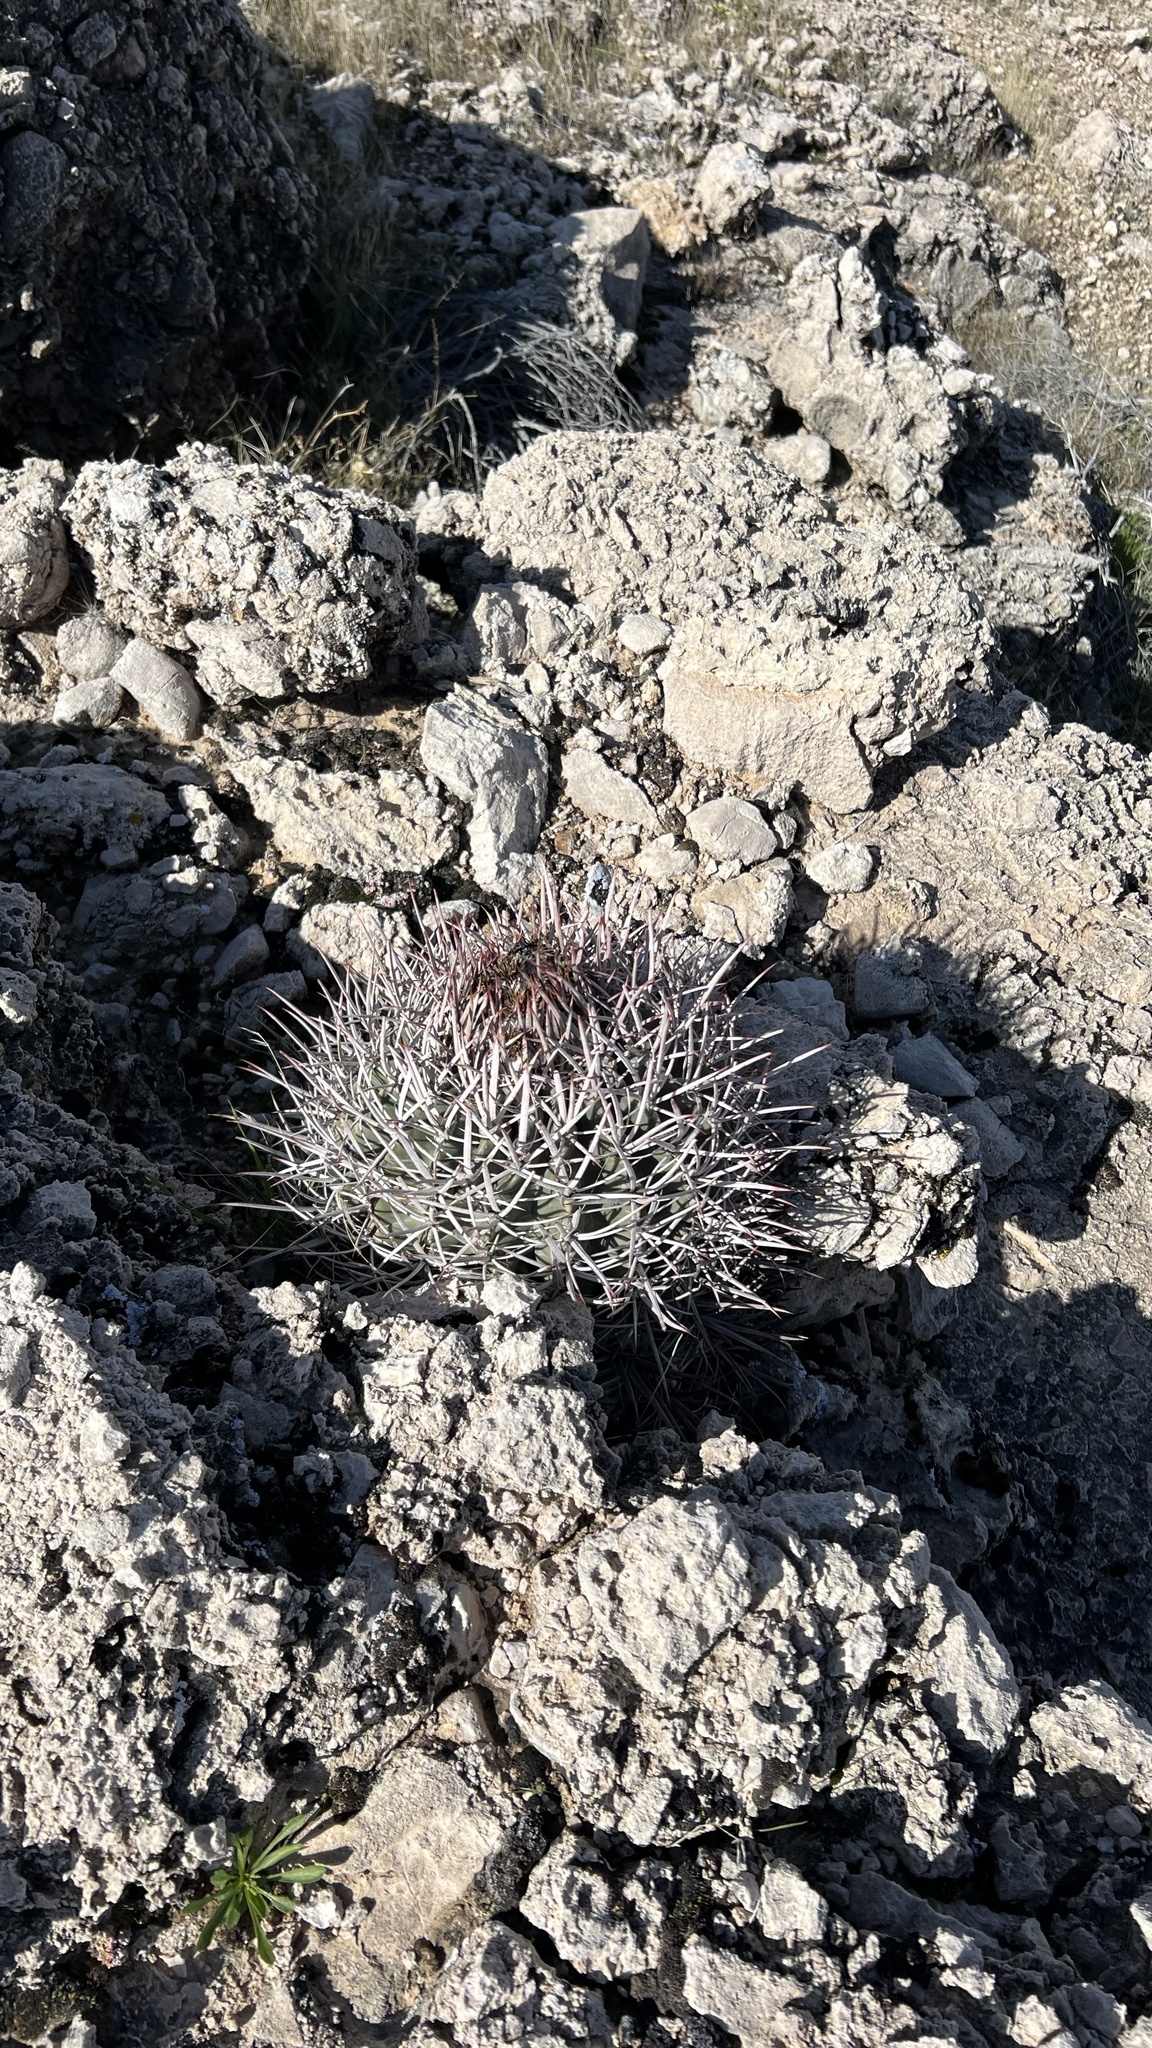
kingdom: Plantae
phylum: Tracheophyta
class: Magnoliopsida
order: Caryophyllales
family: Cactaceae
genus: Echinocactus
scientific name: Echinocactus polycephalus
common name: Cottontop cactus
